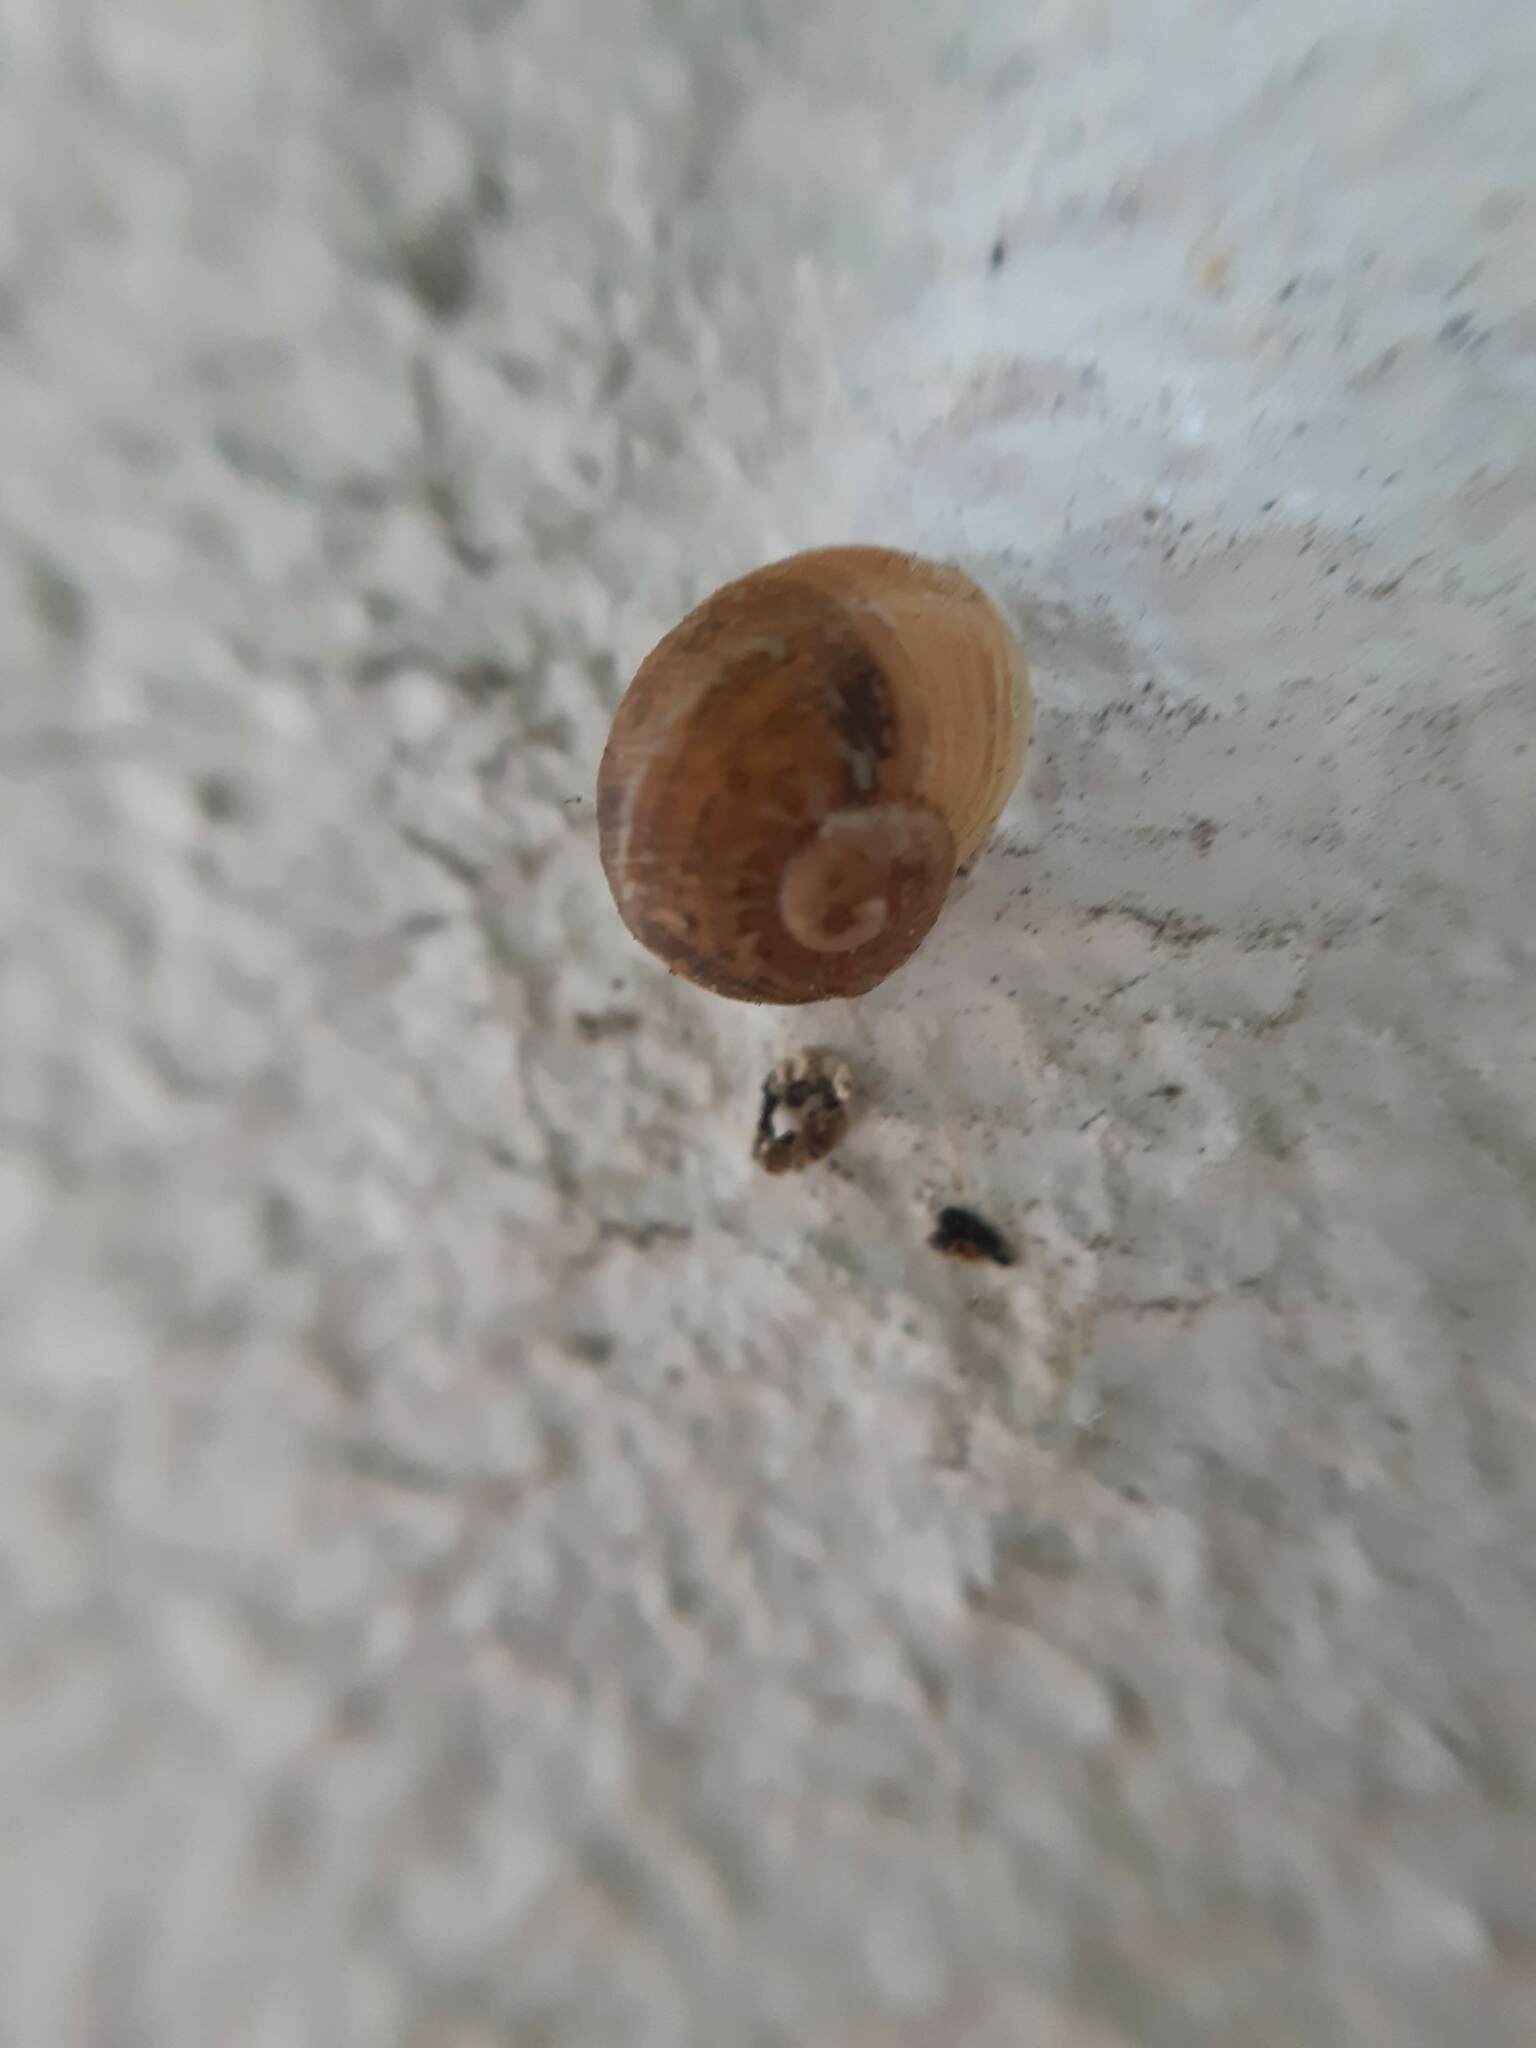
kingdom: Animalia
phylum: Mollusca
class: Gastropoda
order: Stylommatophora
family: Helicidae
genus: Cornu
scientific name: Cornu aspersum
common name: Brown garden snail
